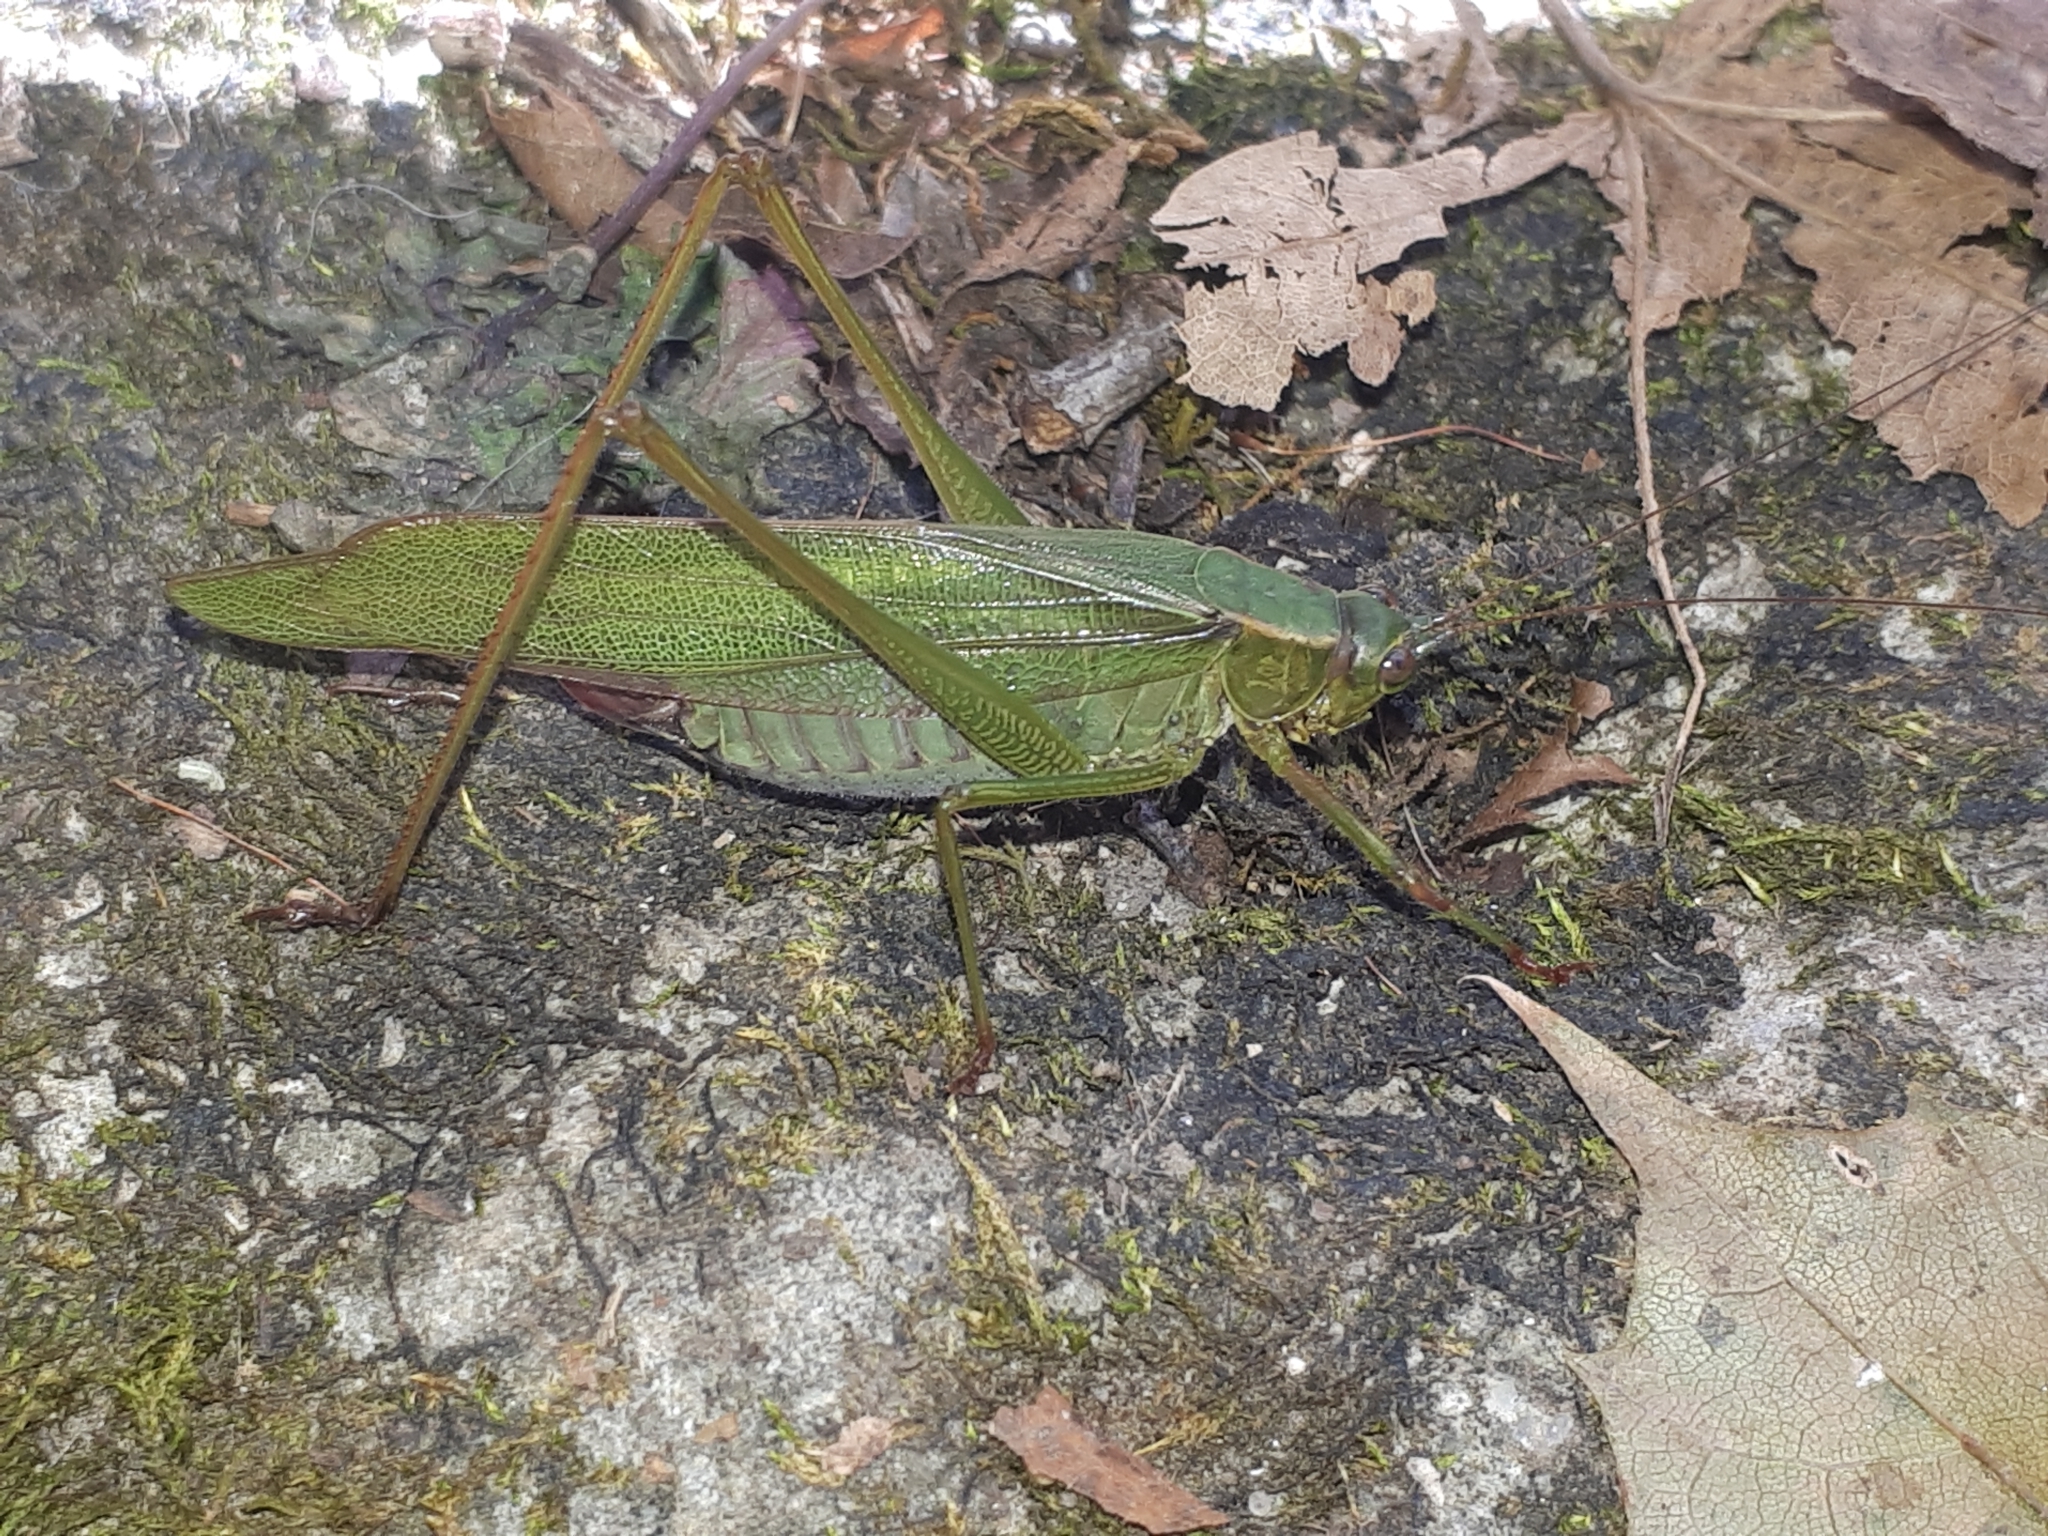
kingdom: Animalia
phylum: Arthropoda
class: Insecta
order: Orthoptera
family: Tettigoniidae
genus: Scudderia
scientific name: Scudderia furcata
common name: Fork-tailed bush katydid
